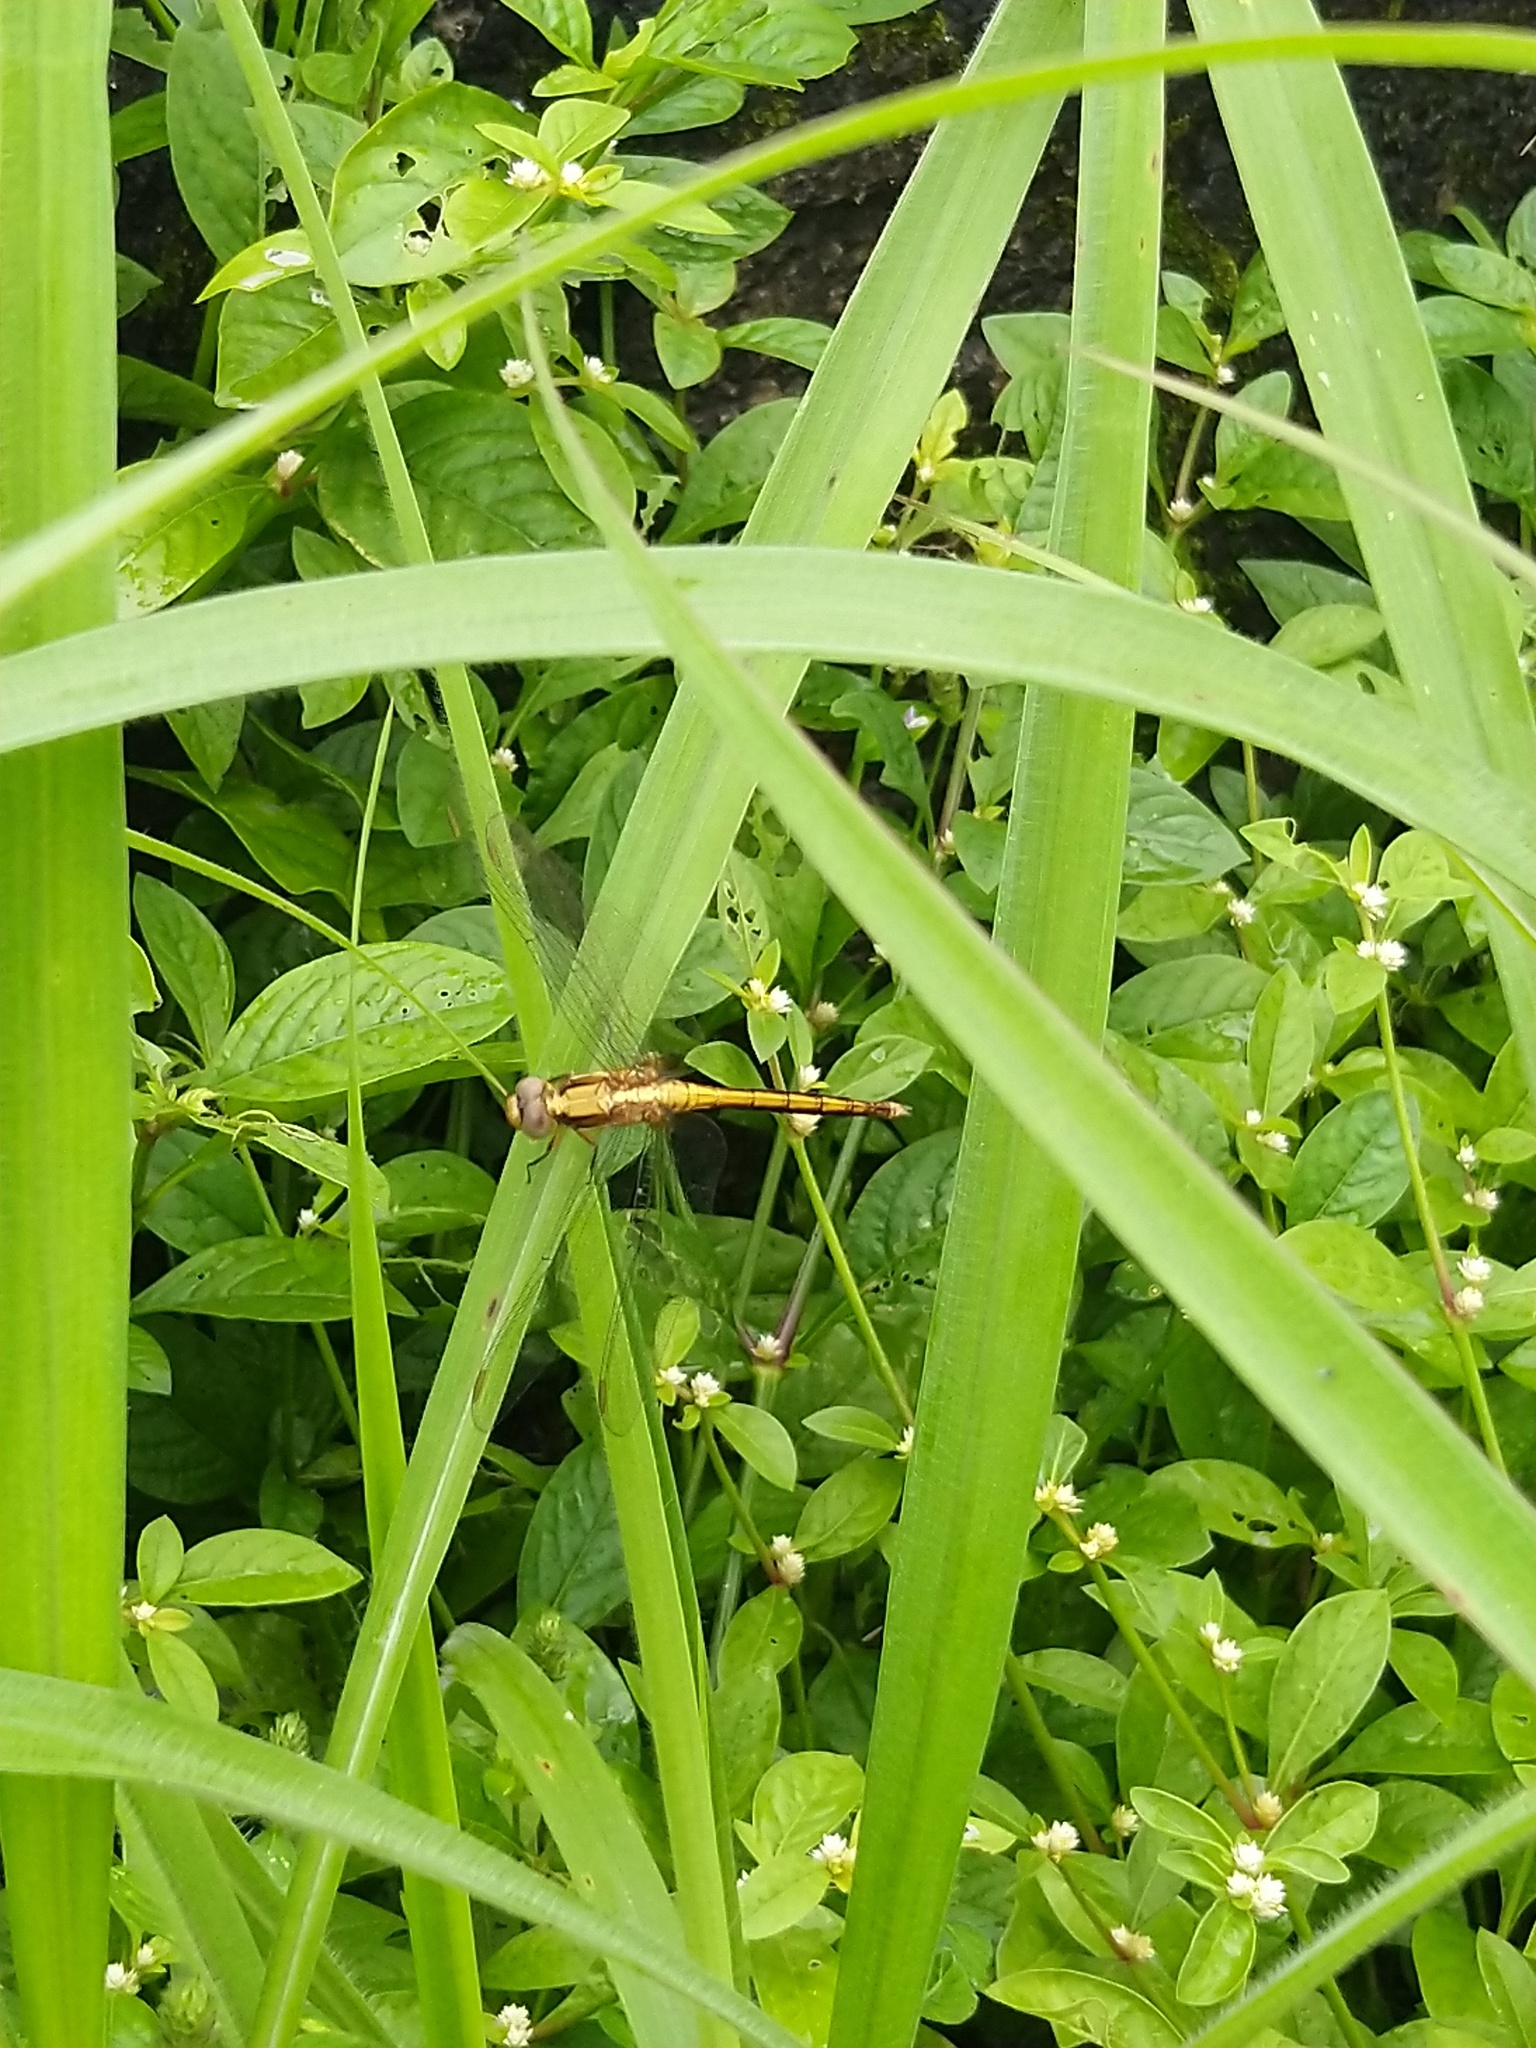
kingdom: Animalia
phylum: Arthropoda
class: Insecta
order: Odonata
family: Libellulidae
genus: Orthetrum
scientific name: Orthetrum luzonicum
